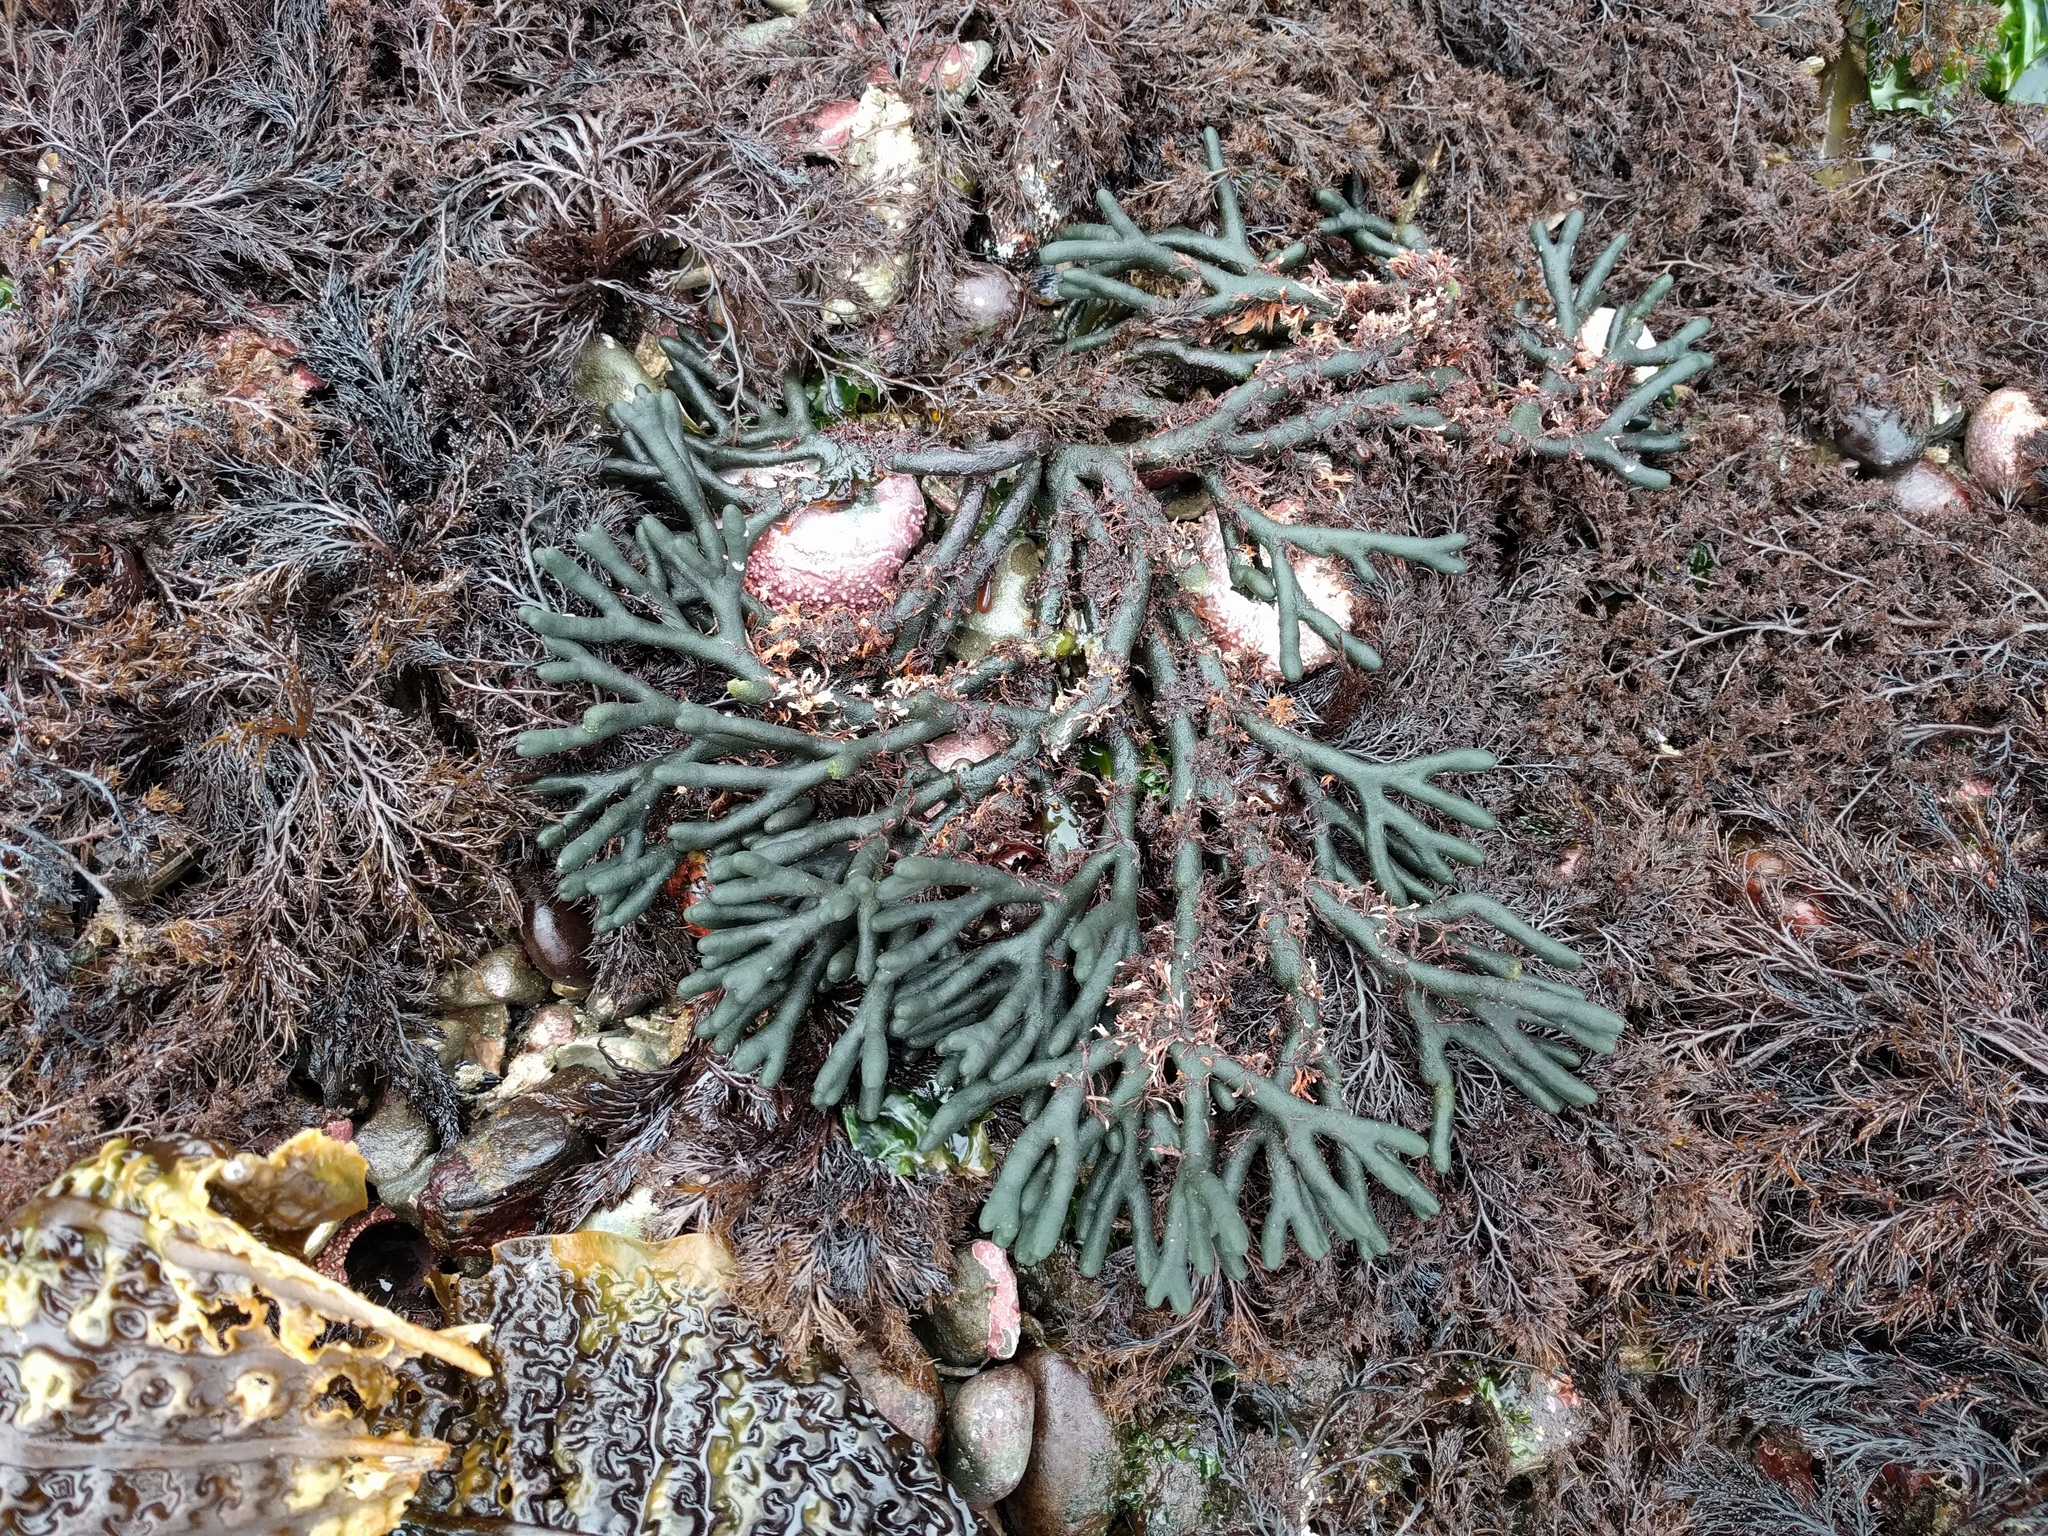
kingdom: Plantae
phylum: Chlorophyta
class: Ulvophyceae
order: Bryopsidales
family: Codiaceae
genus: Codium
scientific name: Codium fragile
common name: Dead man's fingers
